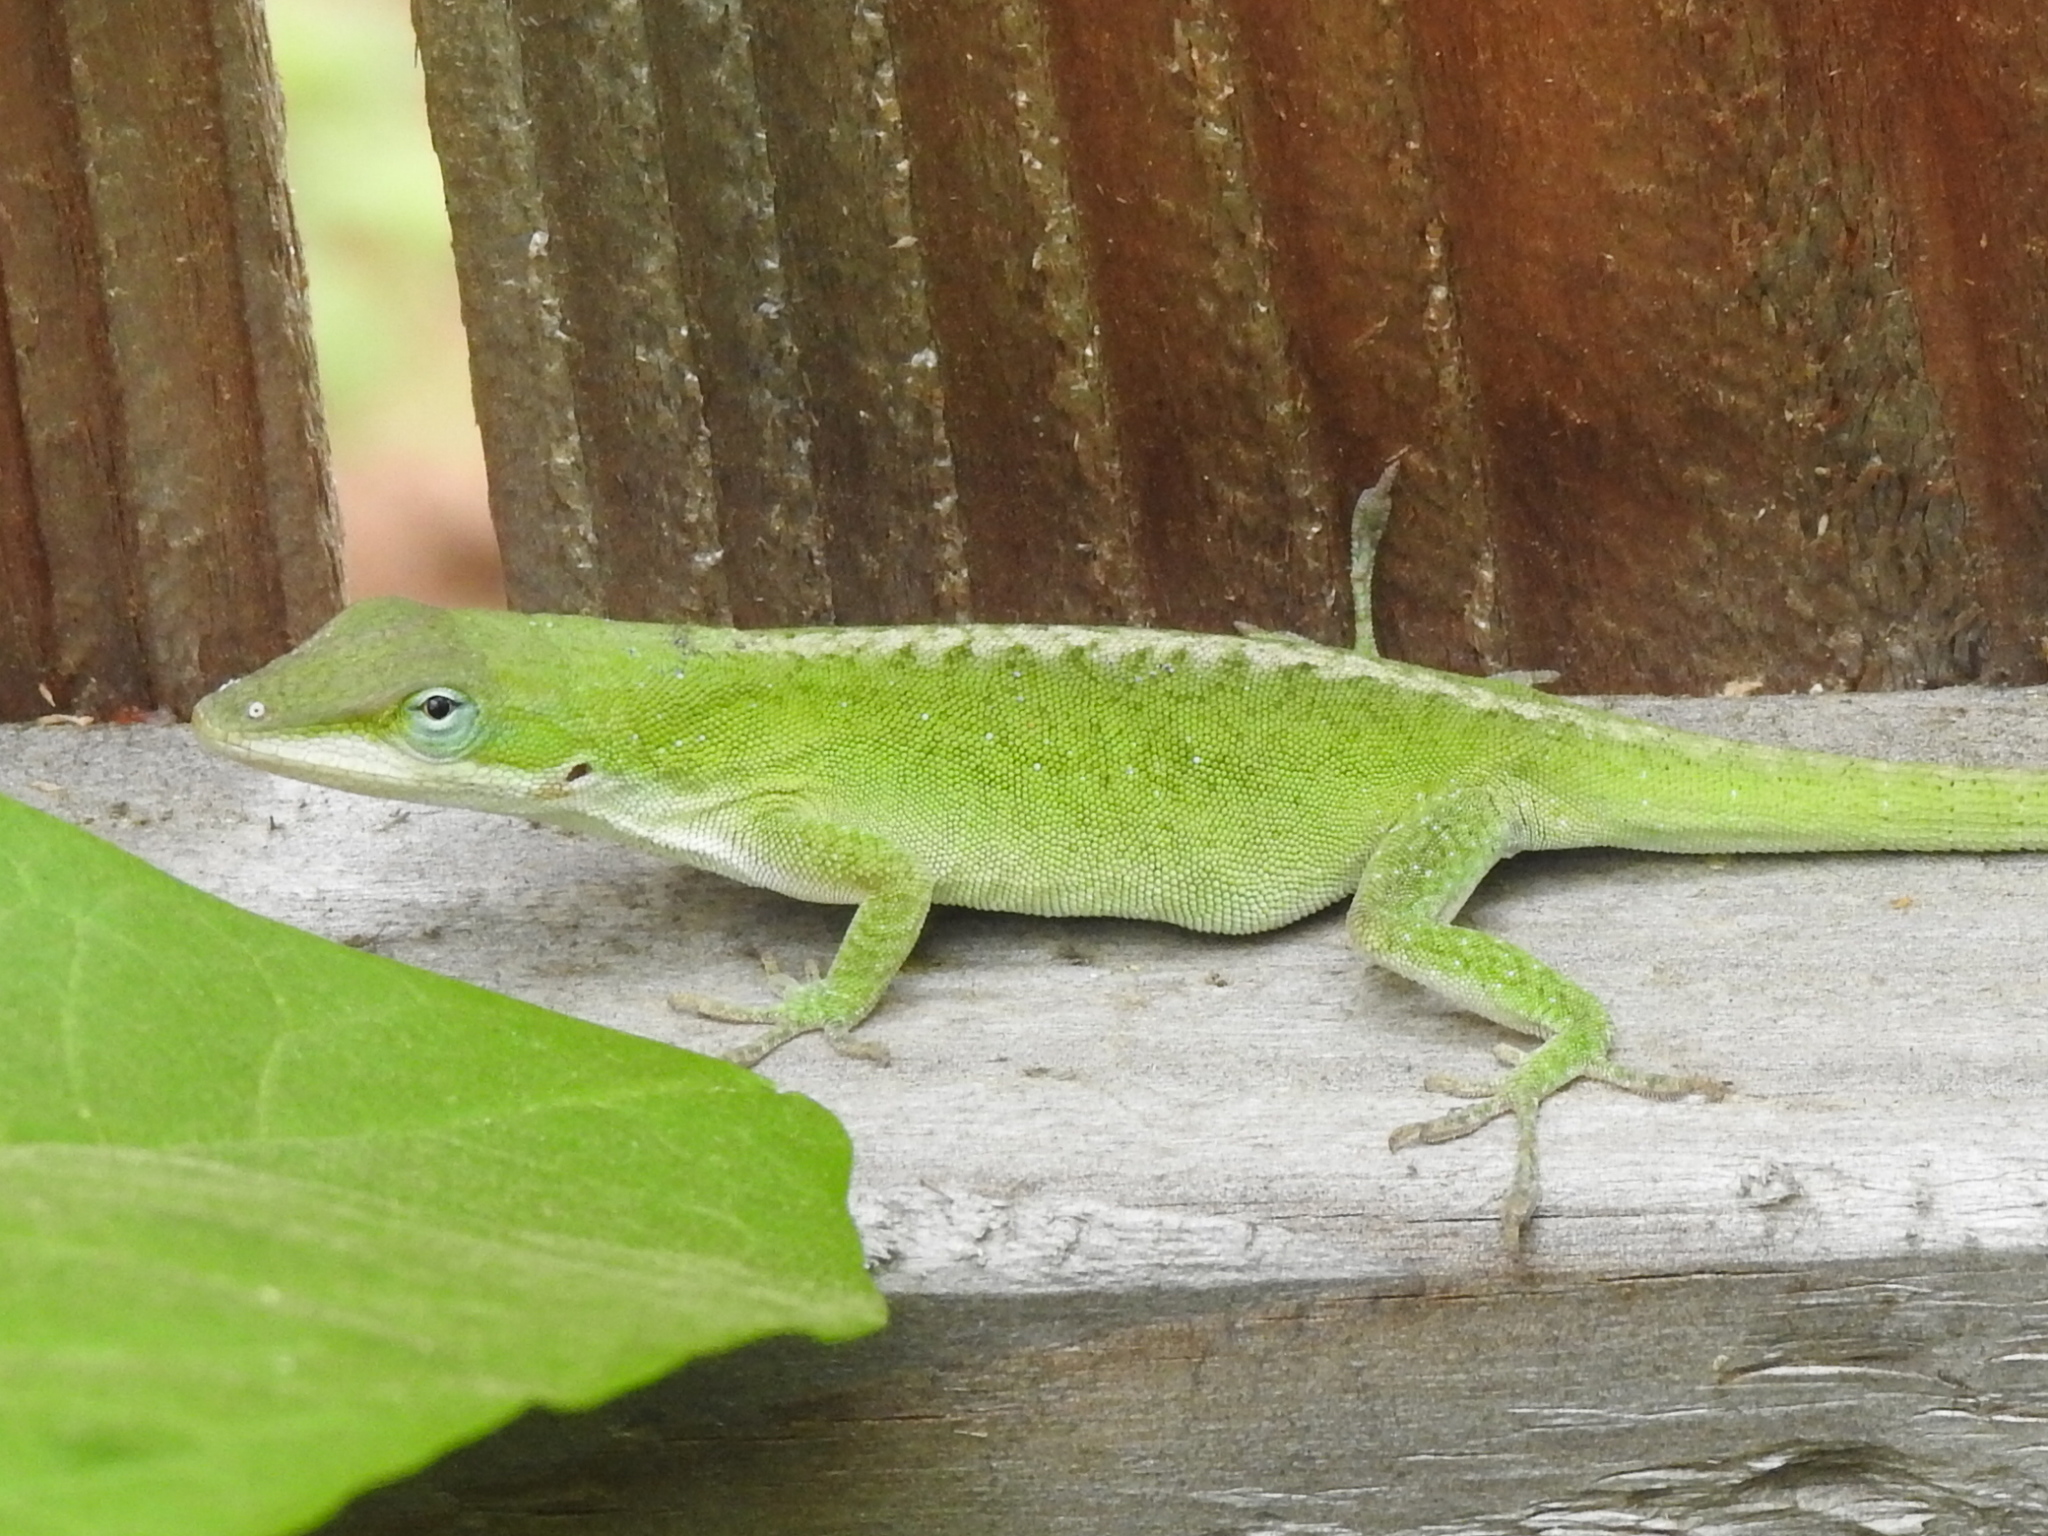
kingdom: Animalia
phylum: Chordata
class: Squamata
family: Dactyloidae
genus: Anolis
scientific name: Anolis carolinensis
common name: Green anole
